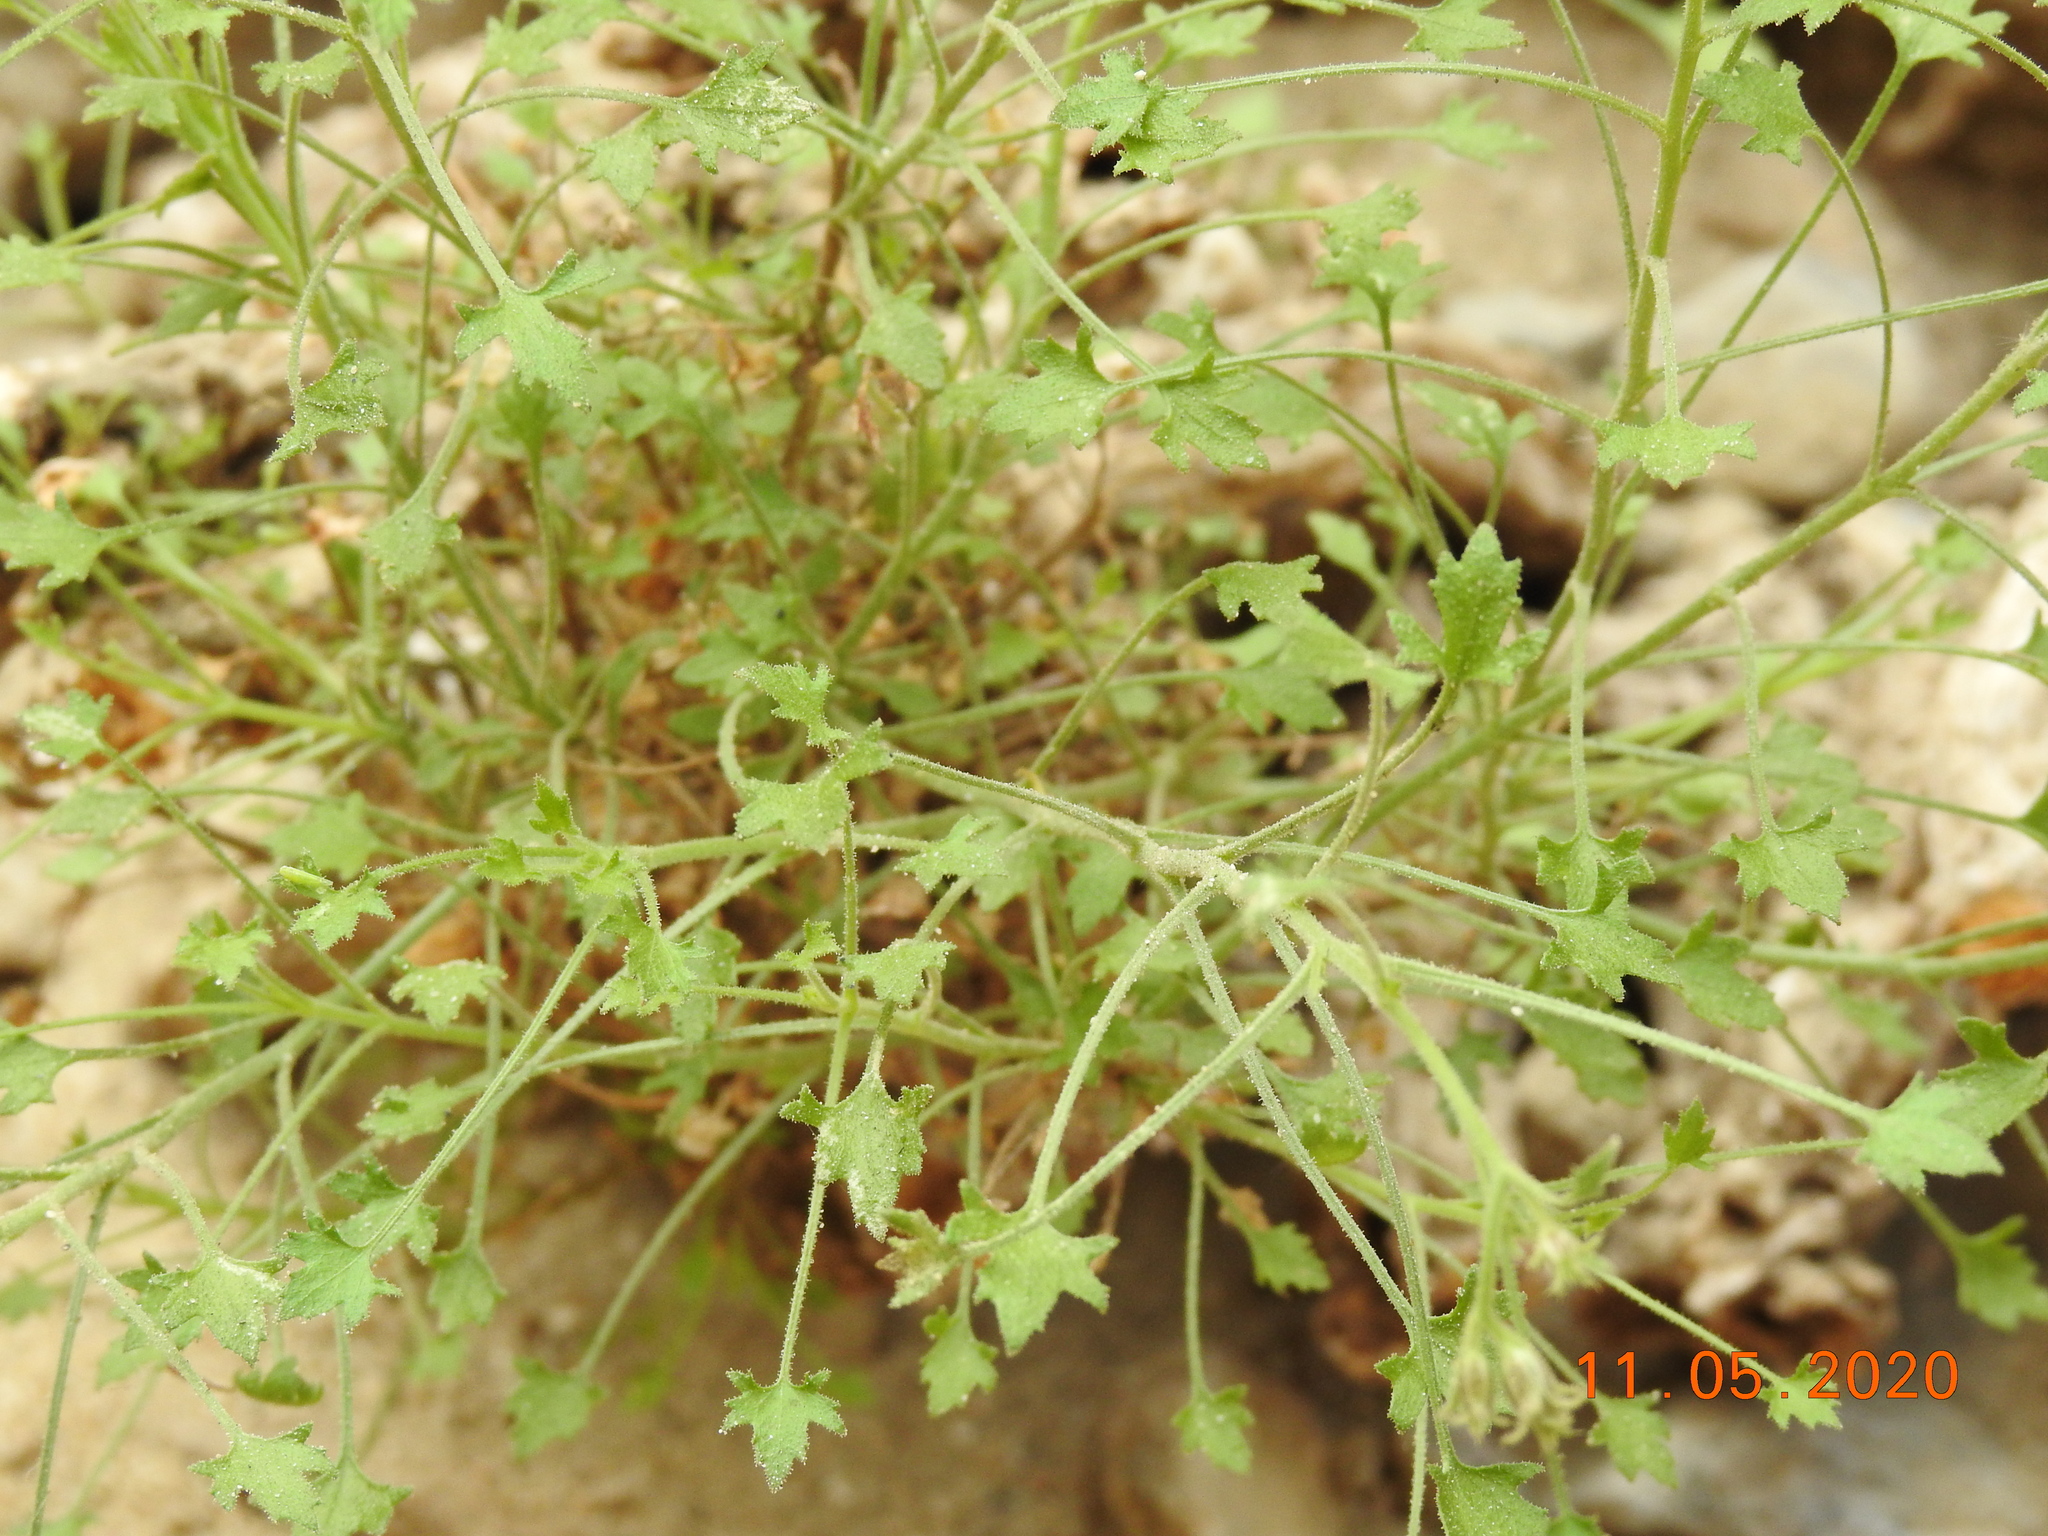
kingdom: Plantae
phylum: Tracheophyta
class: Magnoliopsida
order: Asterales
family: Asteraceae
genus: Pleurocoronis
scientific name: Pleurocoronis pluriseta
